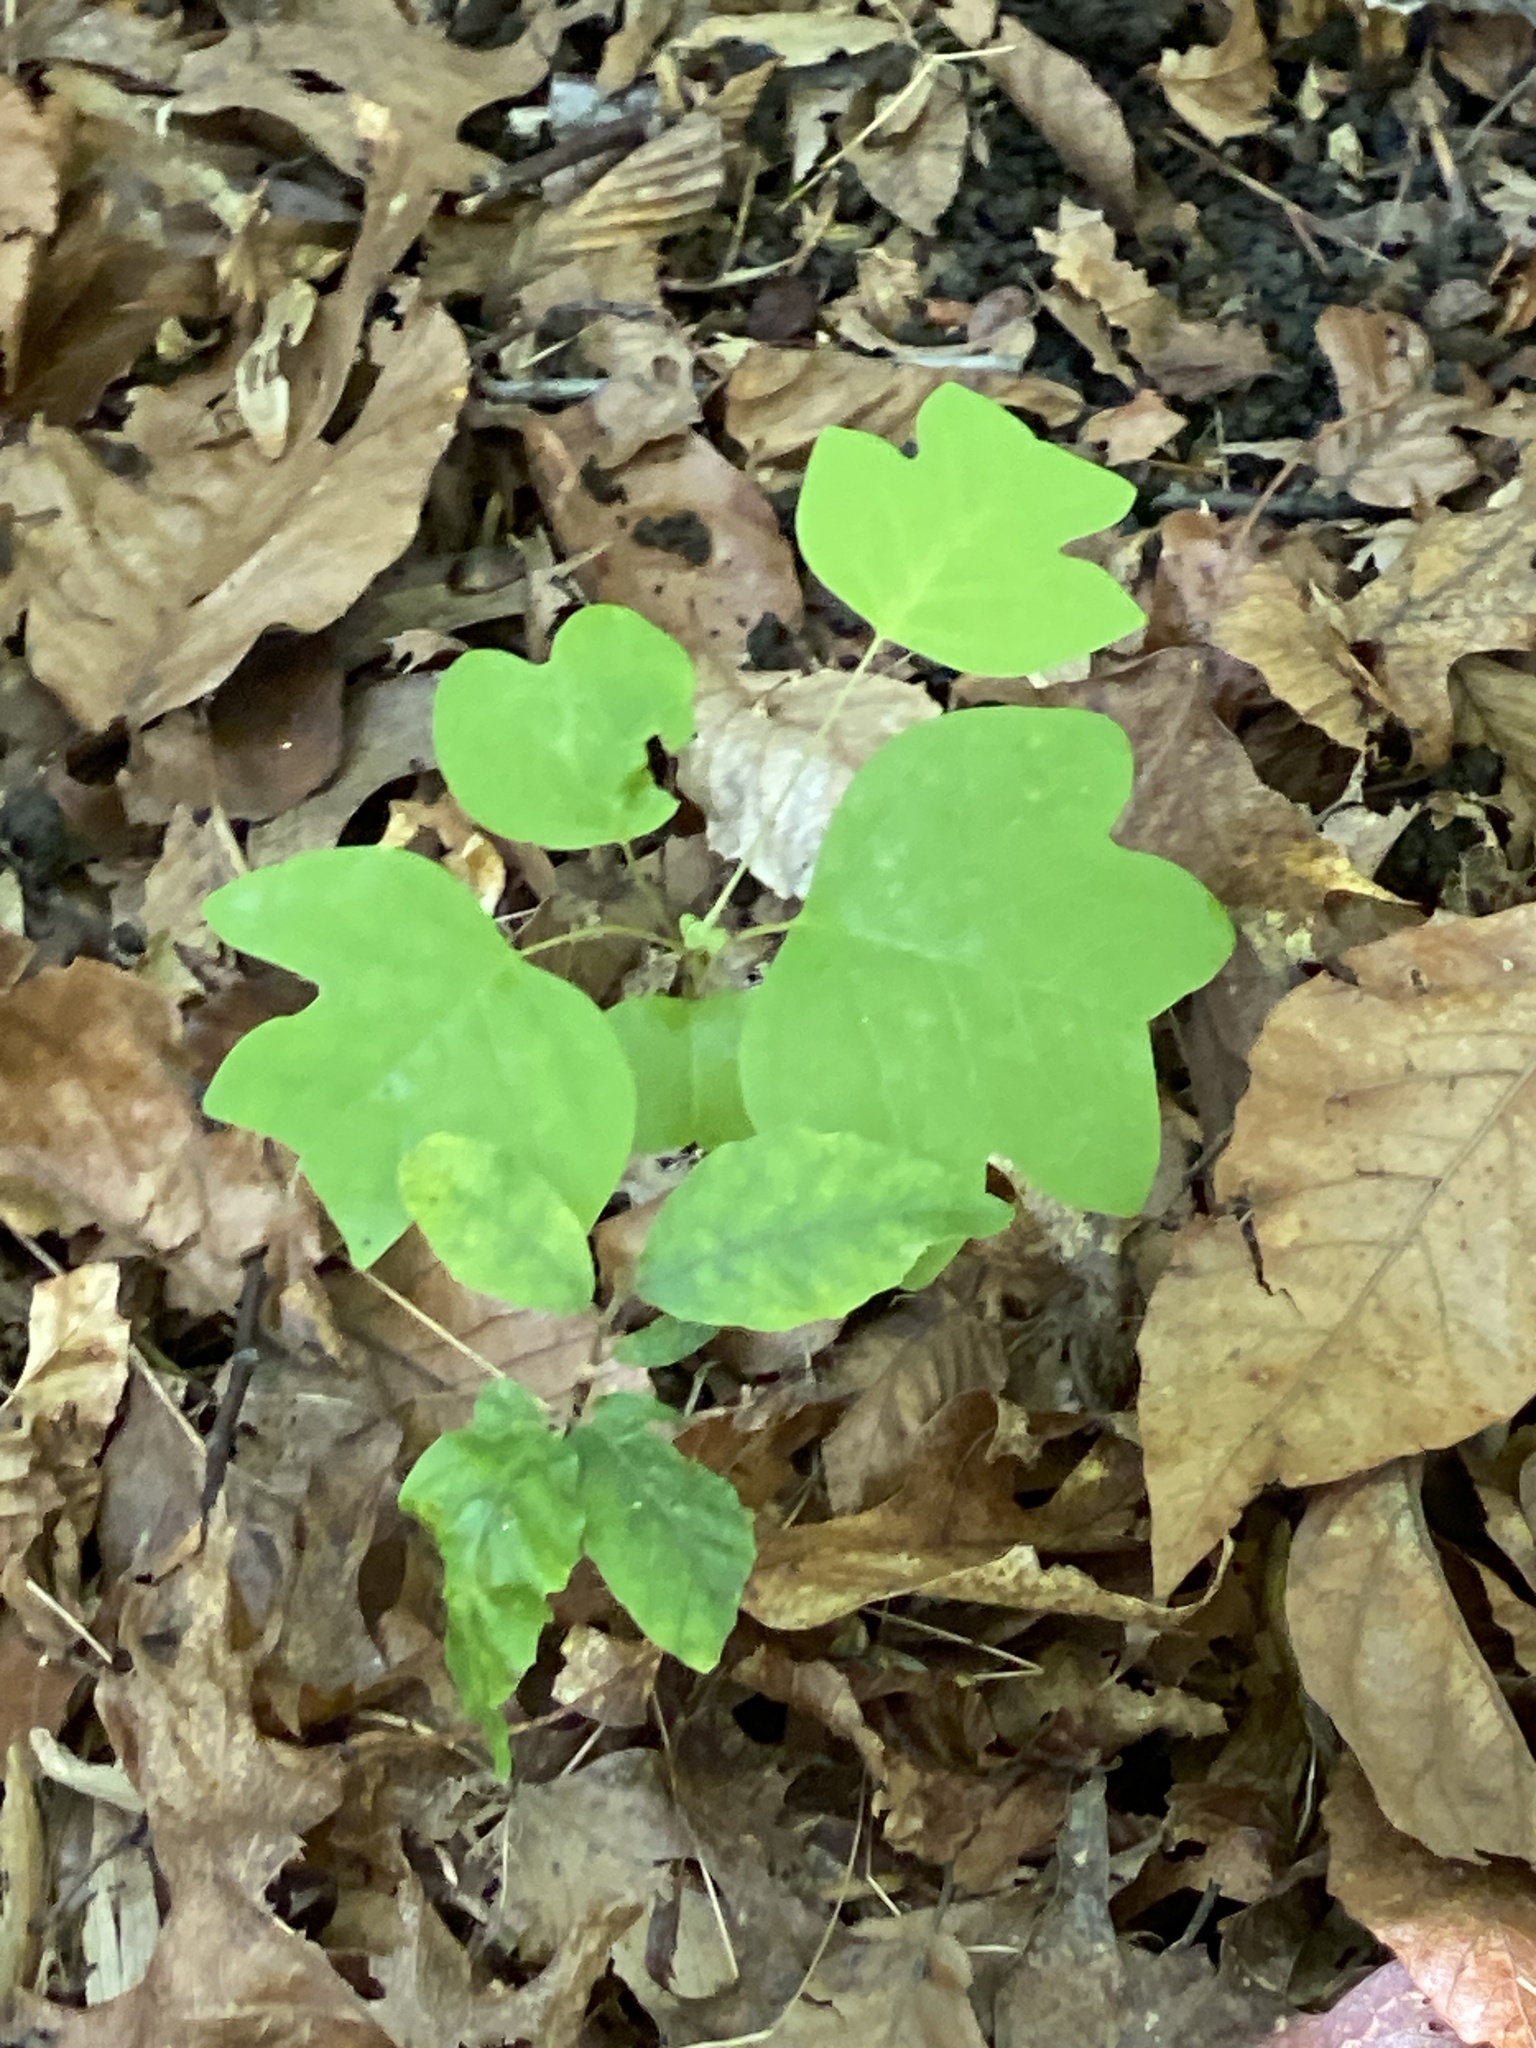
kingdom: Plantae
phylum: Tracheophyta
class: Magnoliopsida
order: Magnoliales
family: Magnoliaceae
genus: Liriodendron
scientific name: Liriodendron tulipifera
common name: Tulip tree
